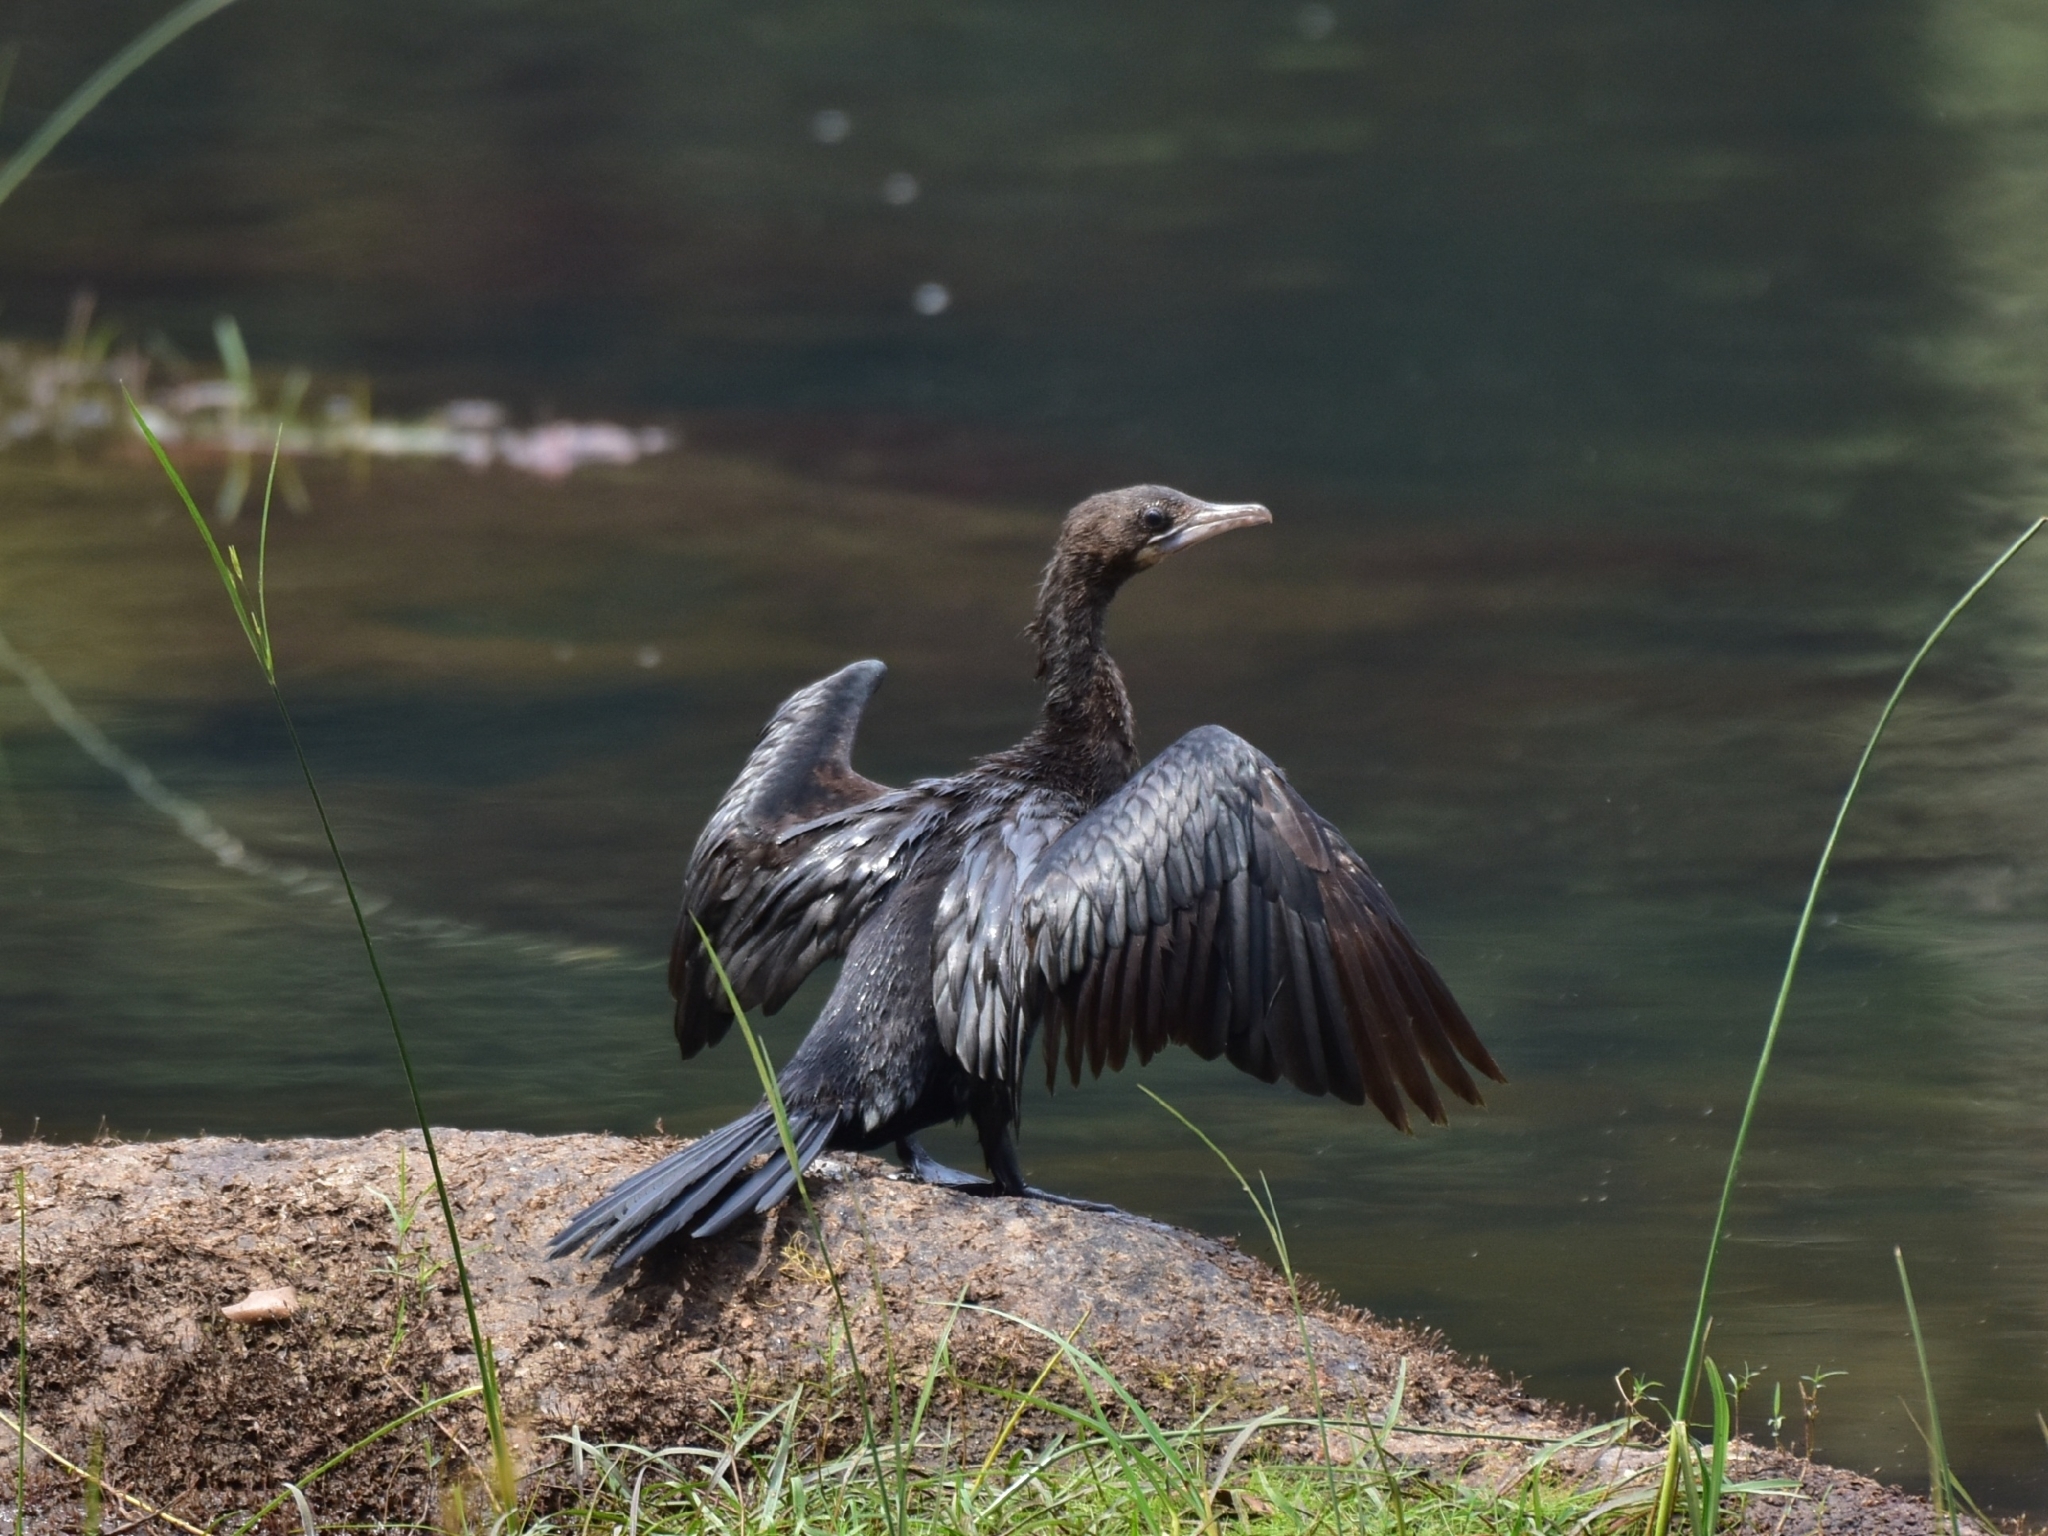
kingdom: Animalia
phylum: Chordata
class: Aves
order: Suliformes
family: Phalacrocoracidae
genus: Microcarbo
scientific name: Microcarbo niger
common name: Little cormorant
